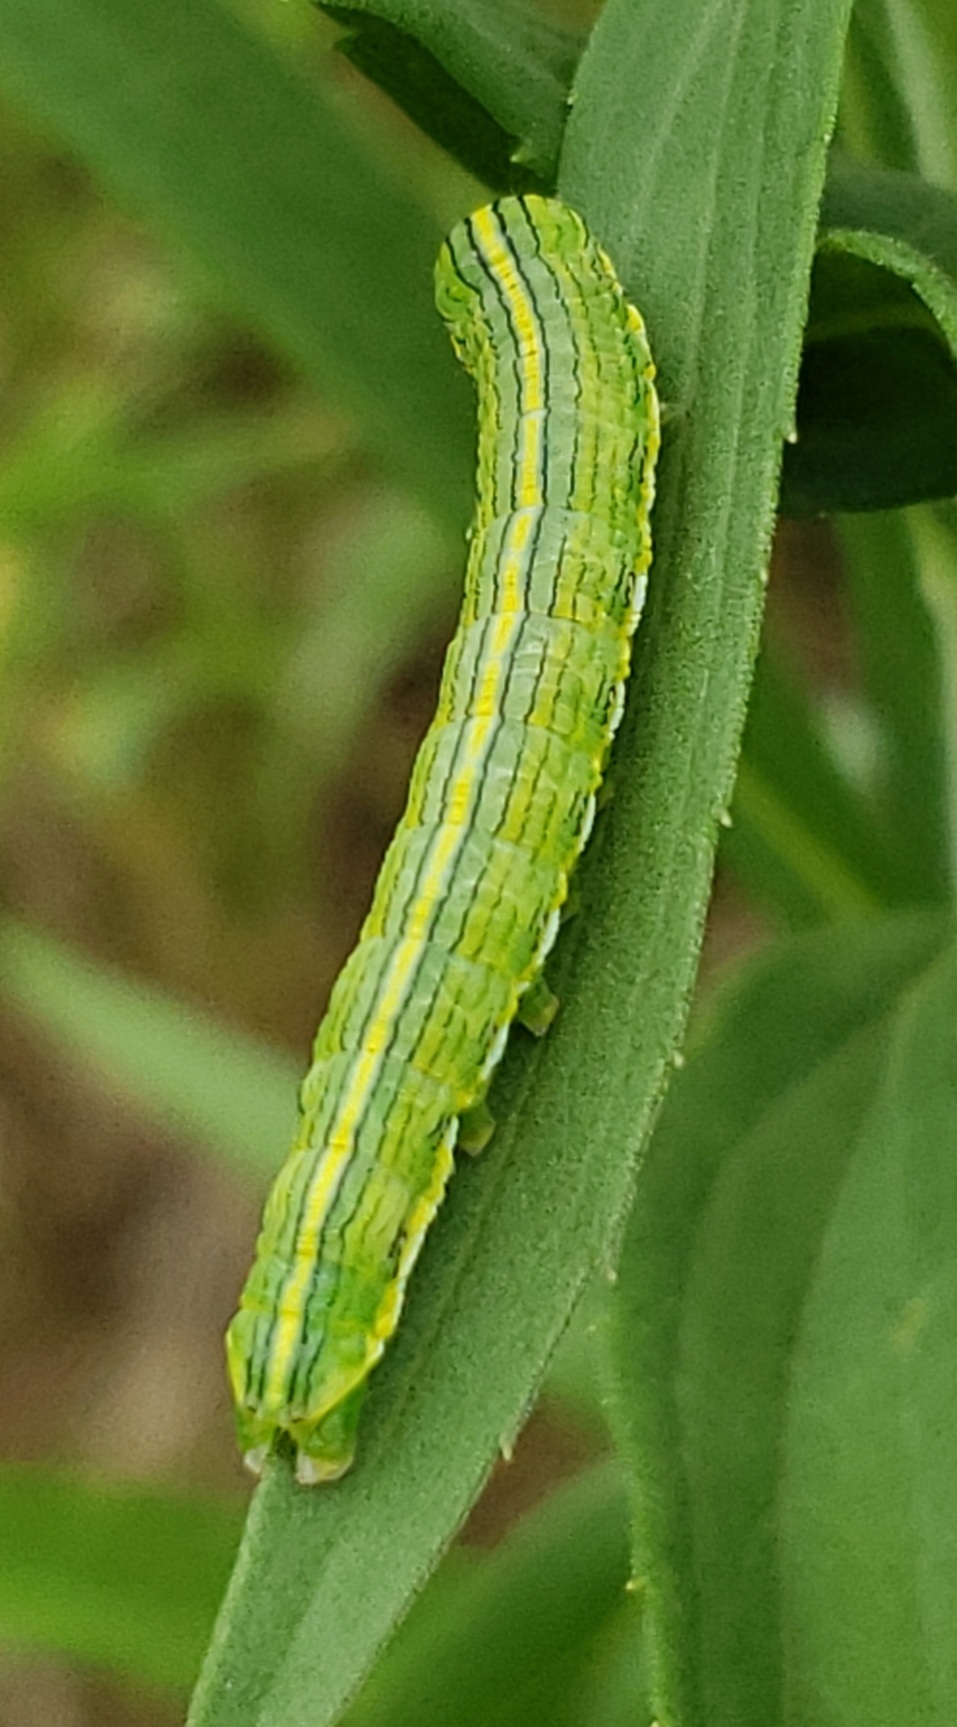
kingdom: Animalia
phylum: Arthropoda
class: Insecta
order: Lepidoptera
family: Noctuidae
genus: Cucullia
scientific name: Cucullia asteroides
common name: Asteroid moth
